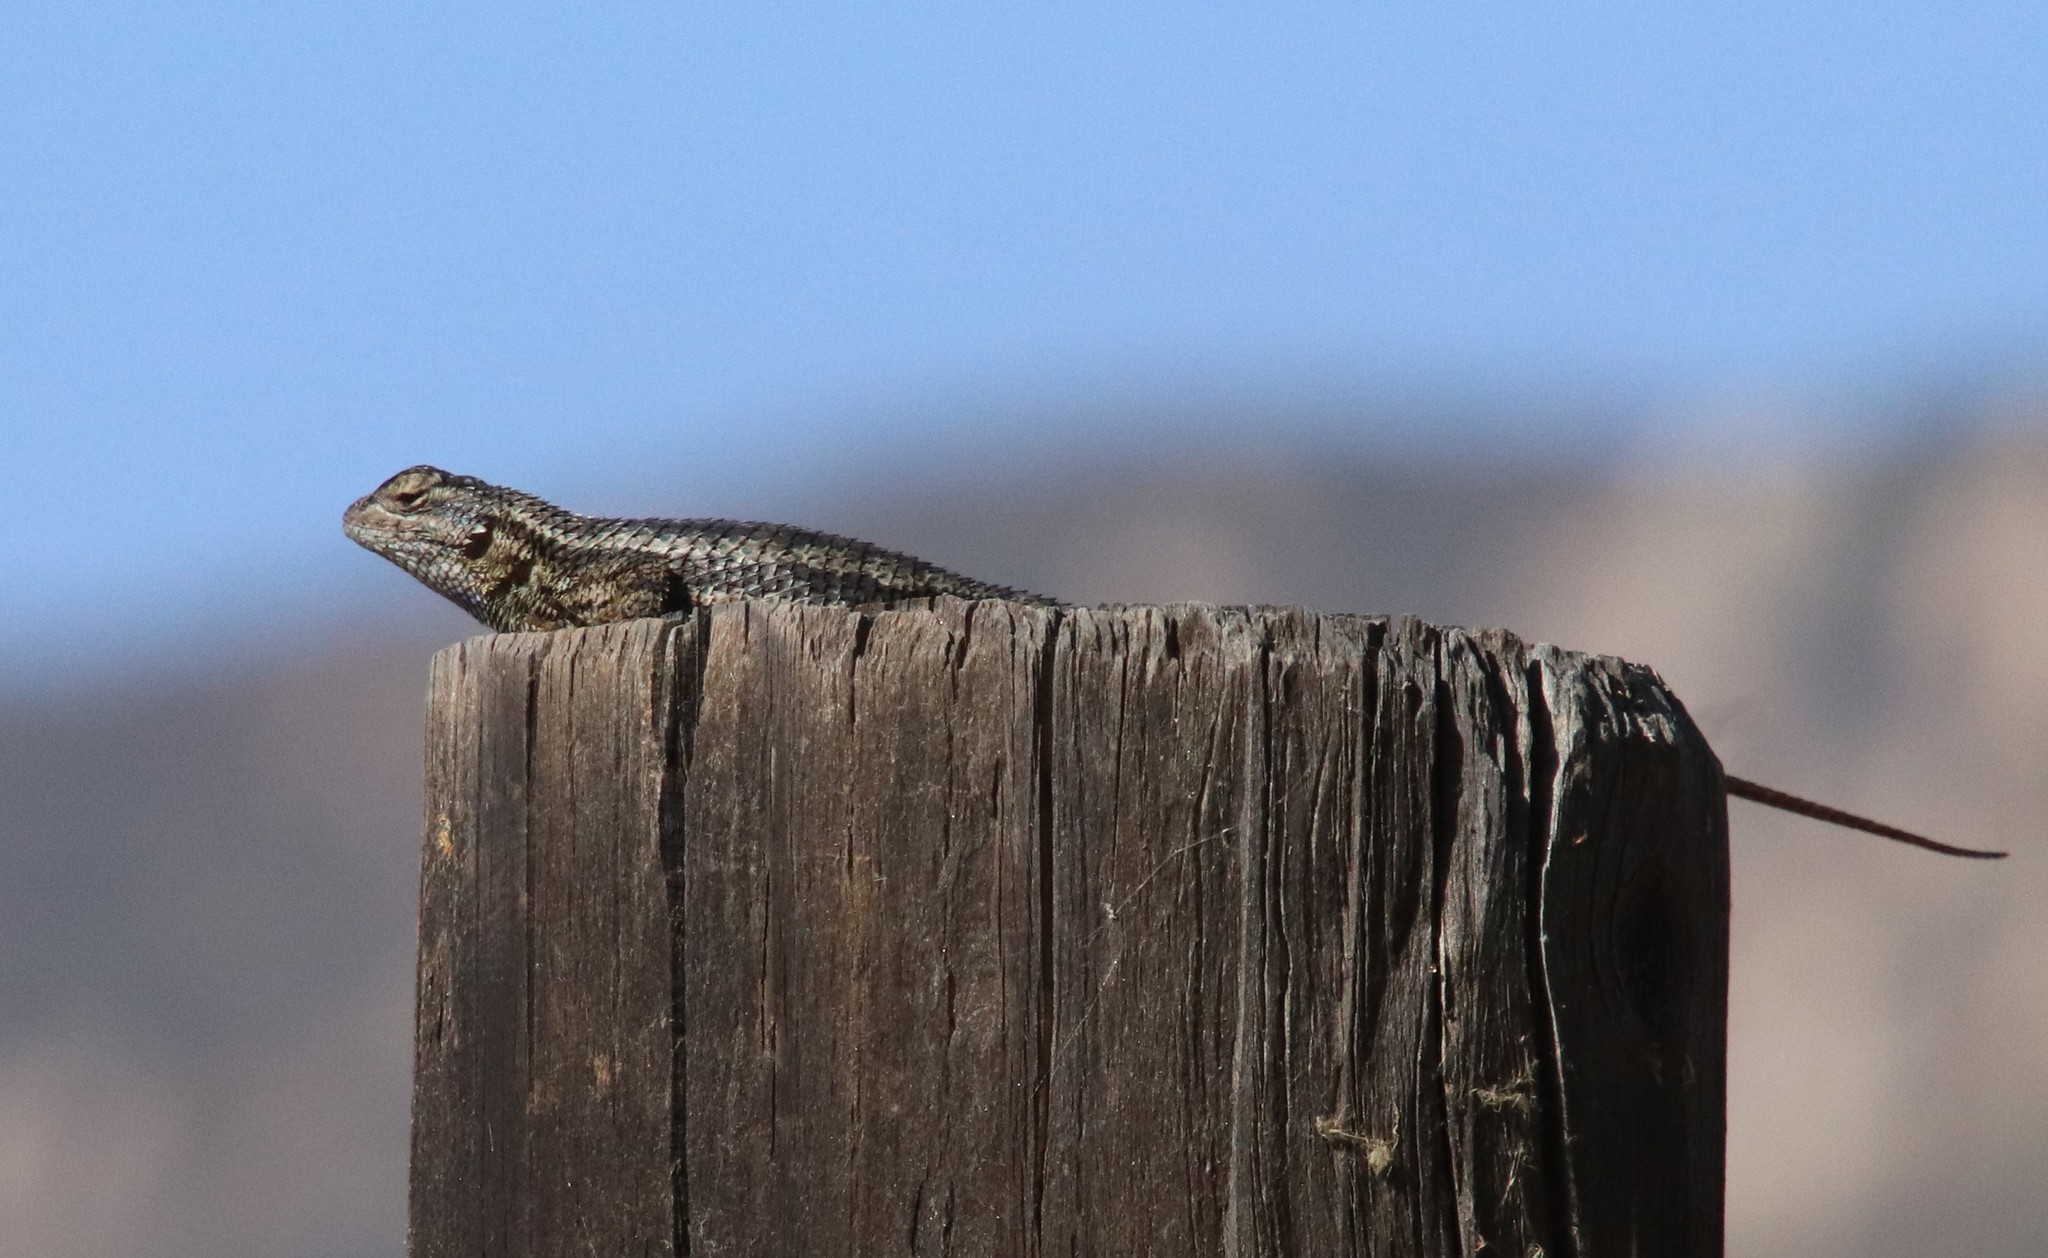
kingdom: Animalia
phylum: Chordata
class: Squamata
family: Phrynosomatidae
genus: Sceloporus
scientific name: Sceloporus occidentalis
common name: Western fence lizard
